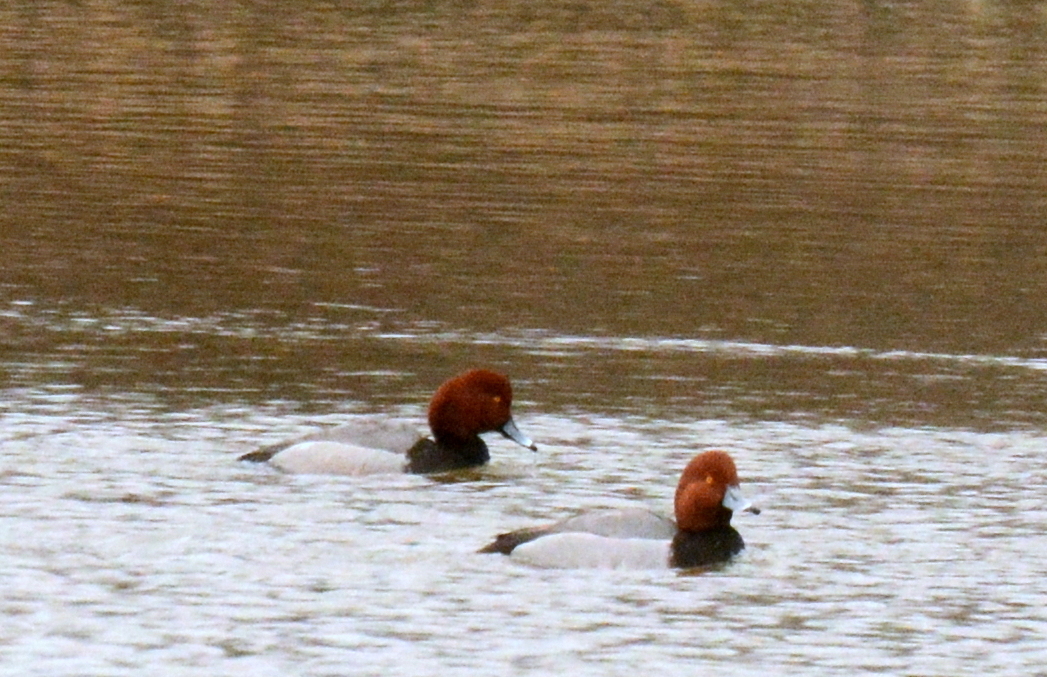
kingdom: Animalia
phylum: Chordata
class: Aves
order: Anseriformes
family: Anatidae
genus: Aythya
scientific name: Aythya americana
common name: Redhead
